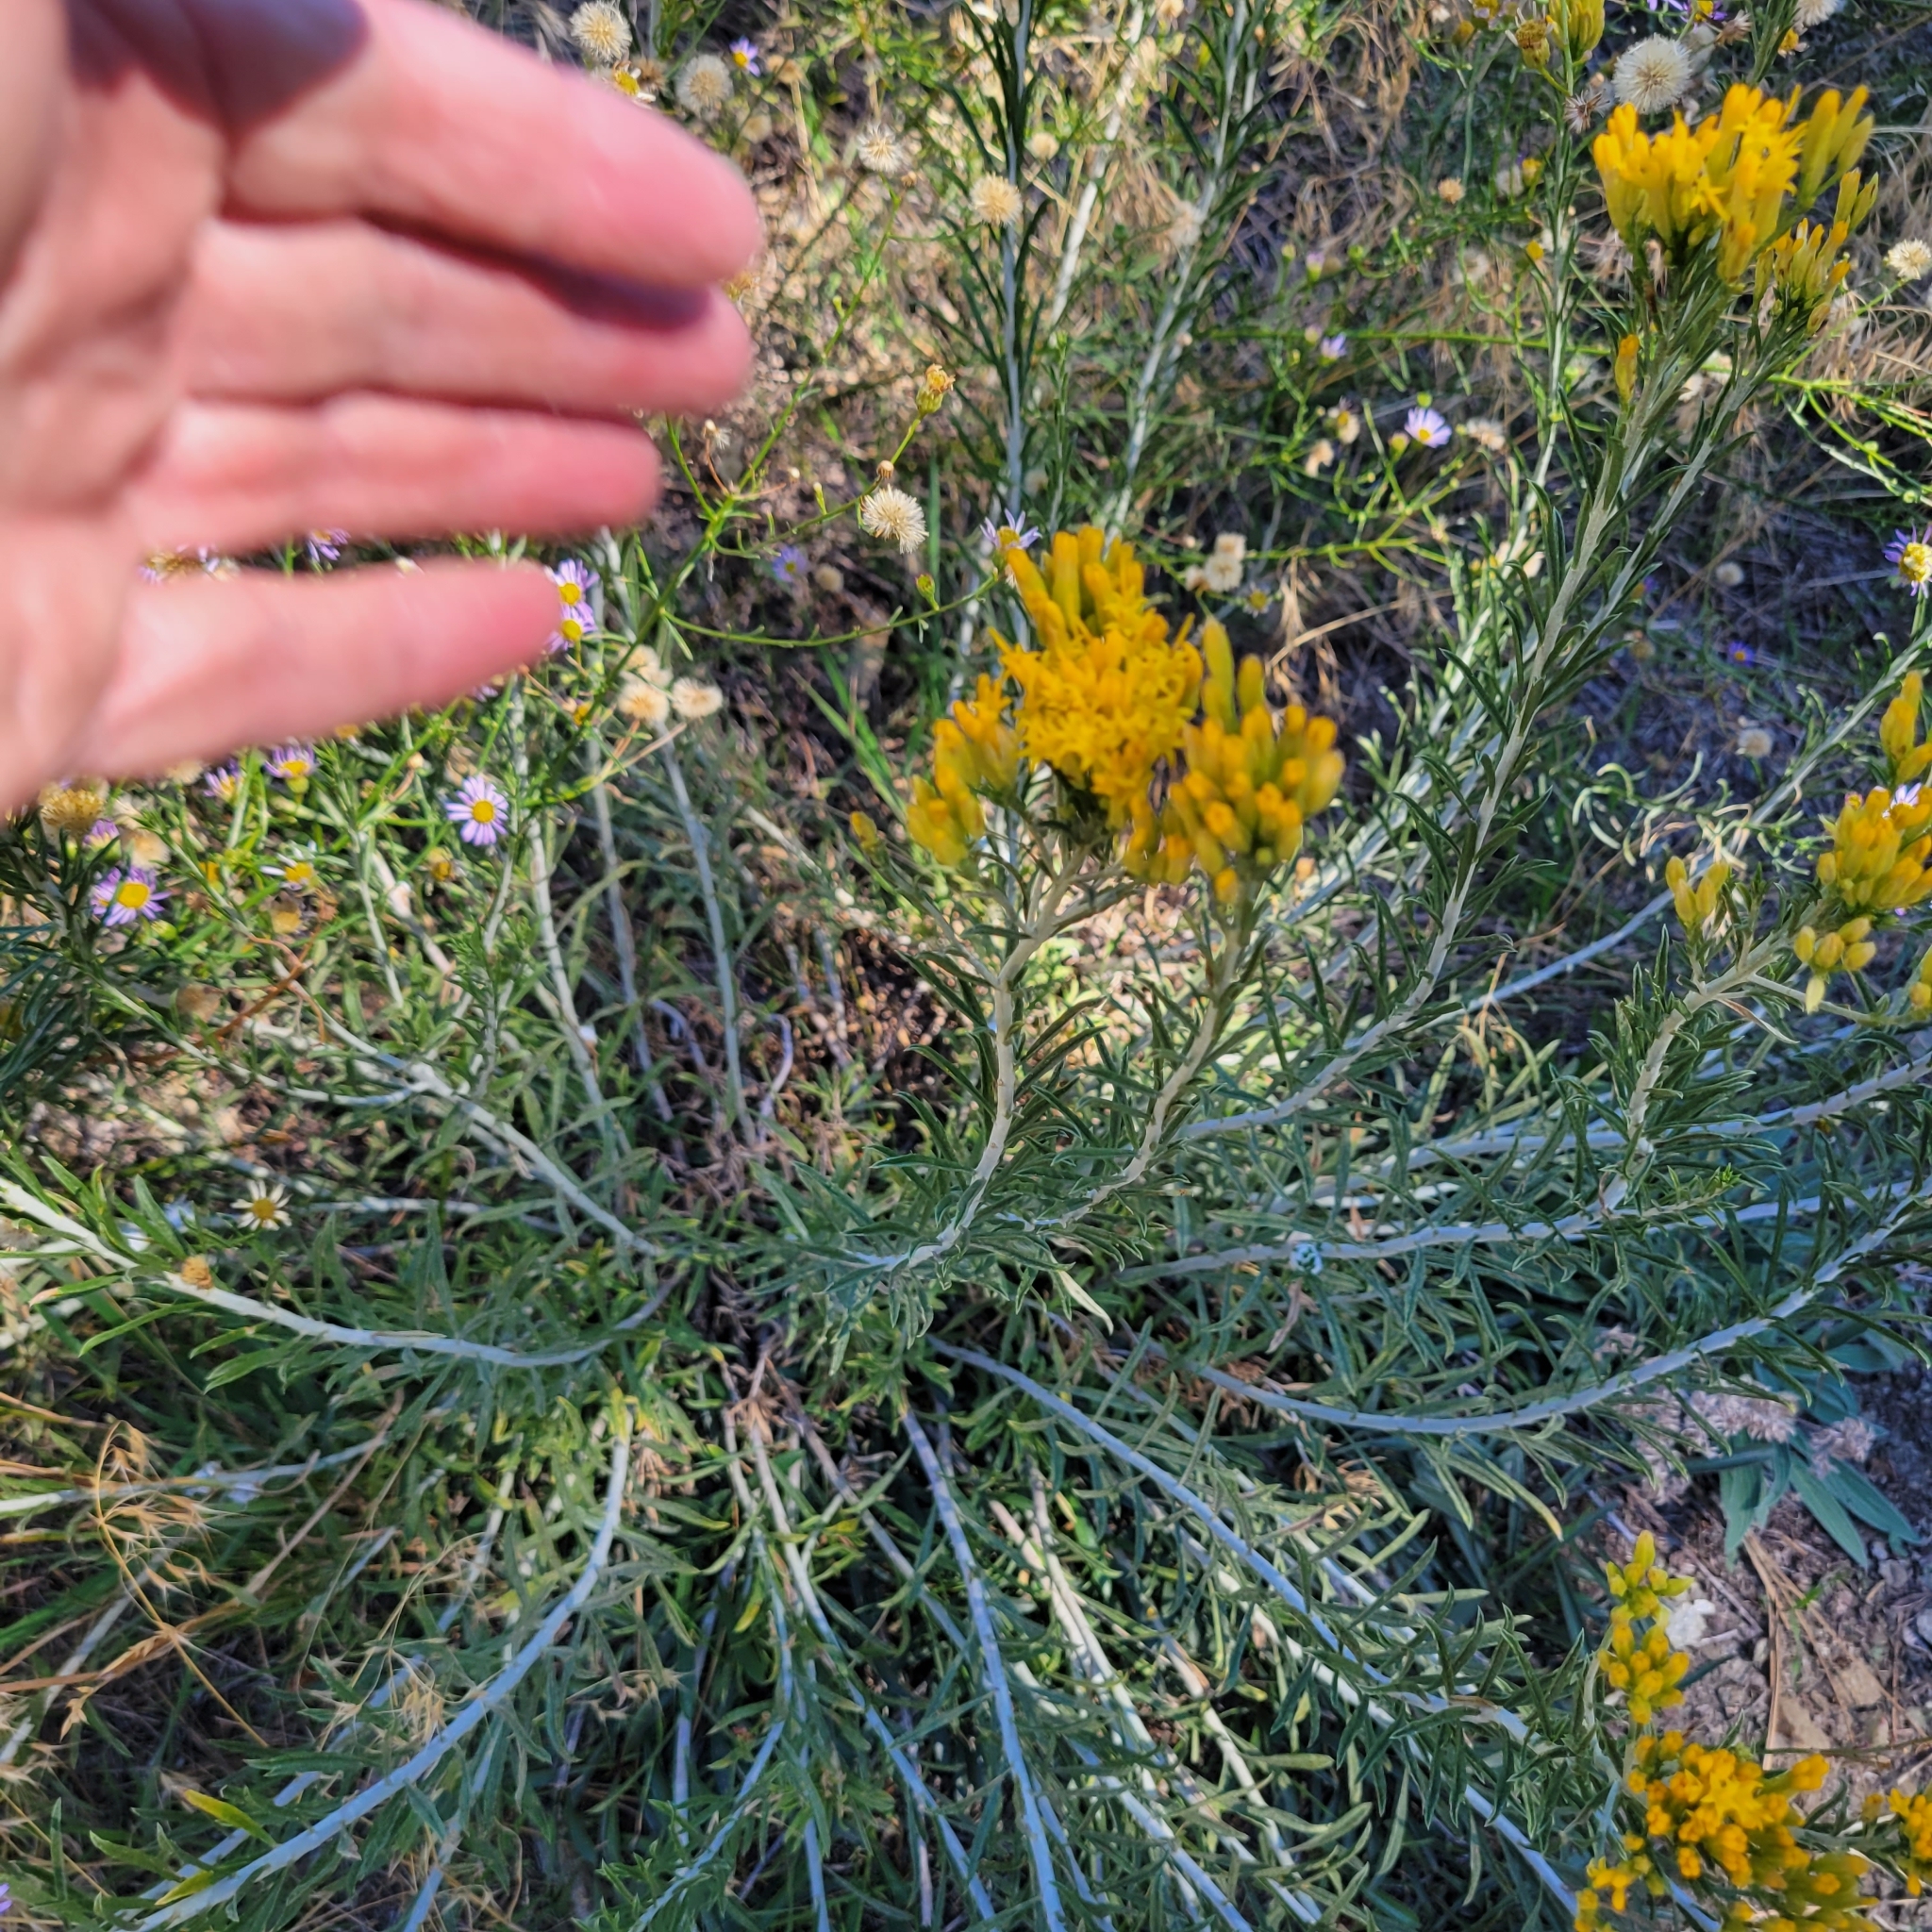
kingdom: Plantae
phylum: Tracheophyta
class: Magnoliopsida
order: Asterales
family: Asteraceae
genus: Ericameria
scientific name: Ericameria nauseosa
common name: Rubber rabbitbrush
